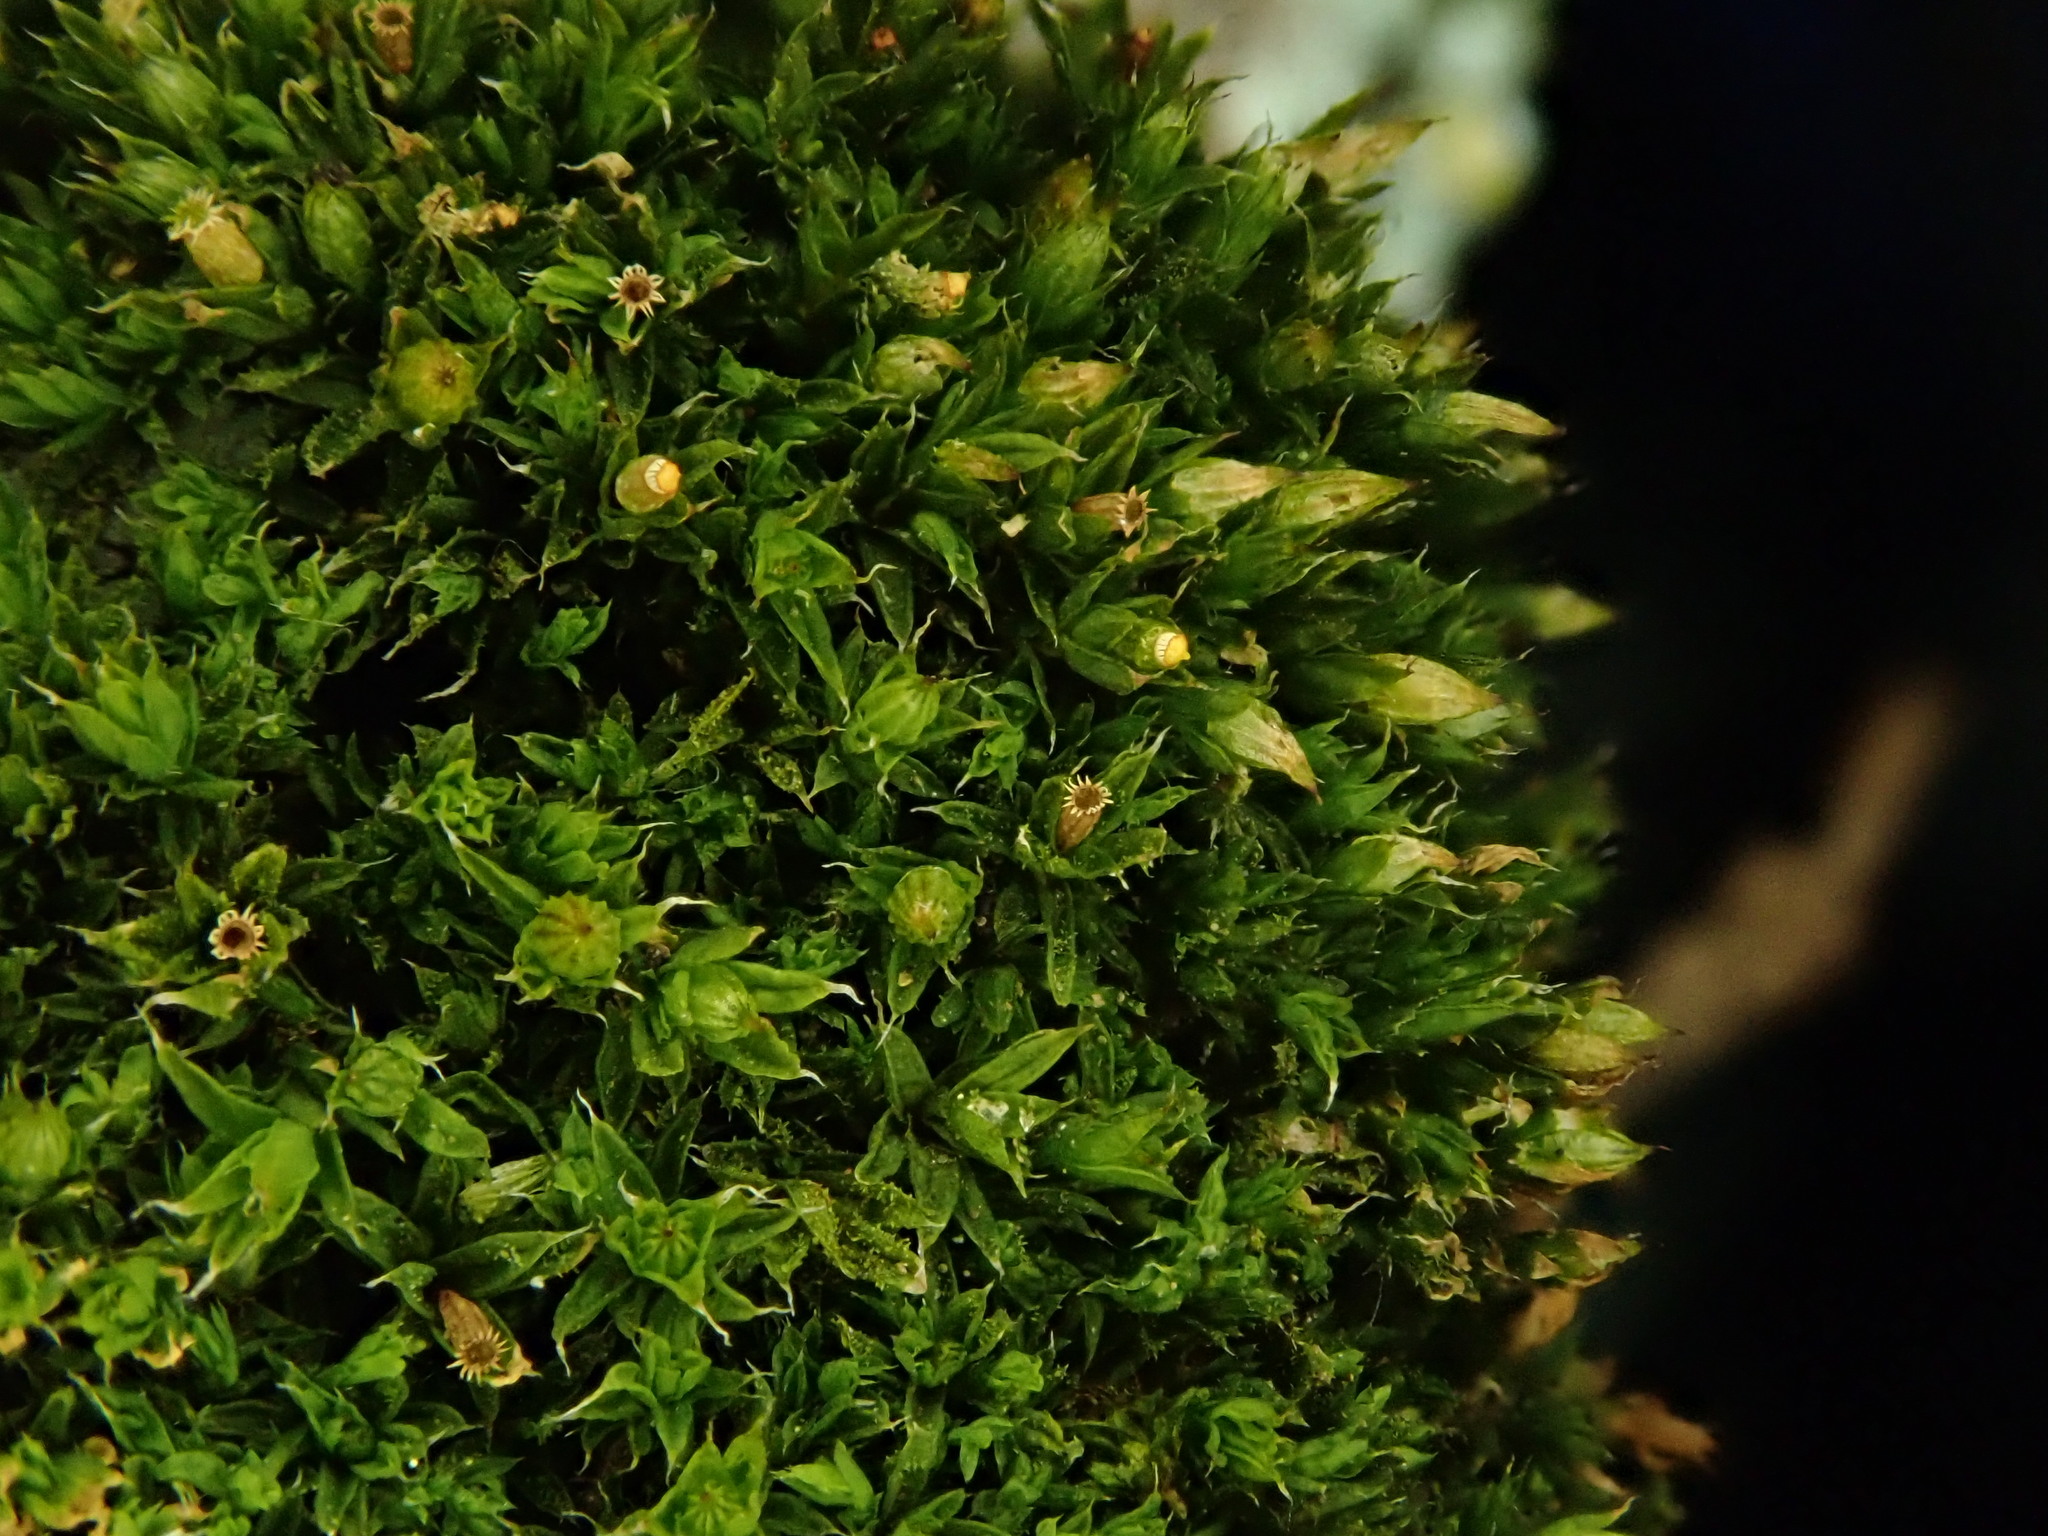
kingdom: Plantae
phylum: Bryophyta
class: Bryopsida
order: Orthotrichales
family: Orthotrichaceae
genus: Orthotrichum
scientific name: Orthotrichum diaphanum
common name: White-tipped bristle-moss
